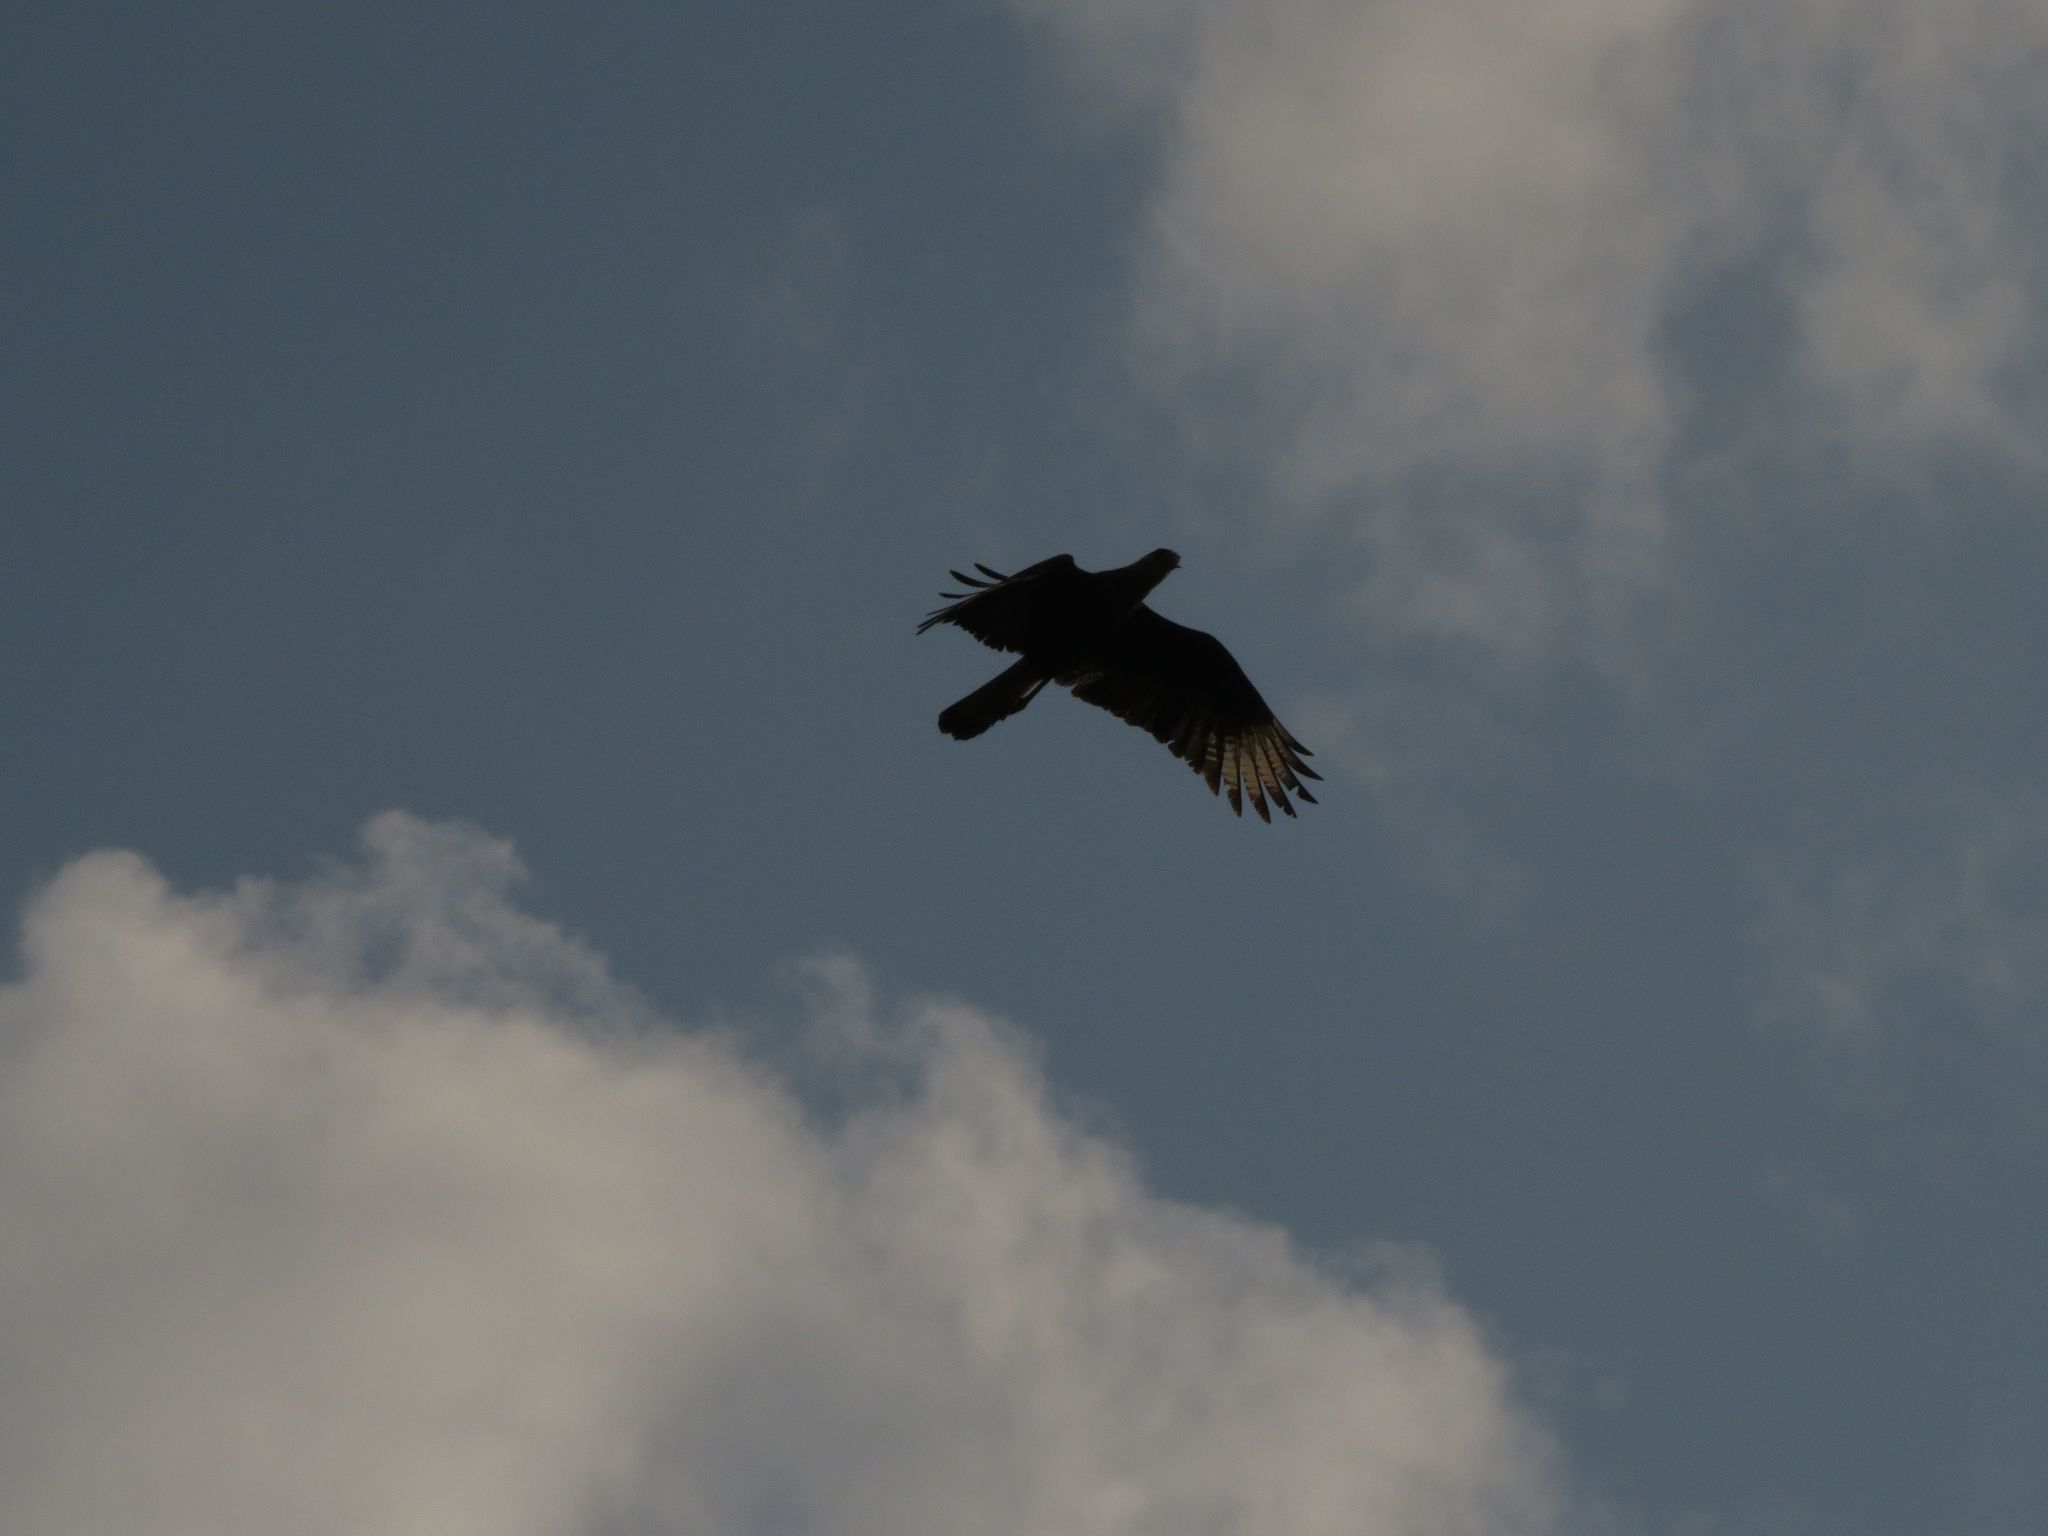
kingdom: Animalia
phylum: Chordata
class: Aves
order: Falconiformes
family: Falconidae
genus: Caracara
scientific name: Caracara plancus
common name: Southern caracara
